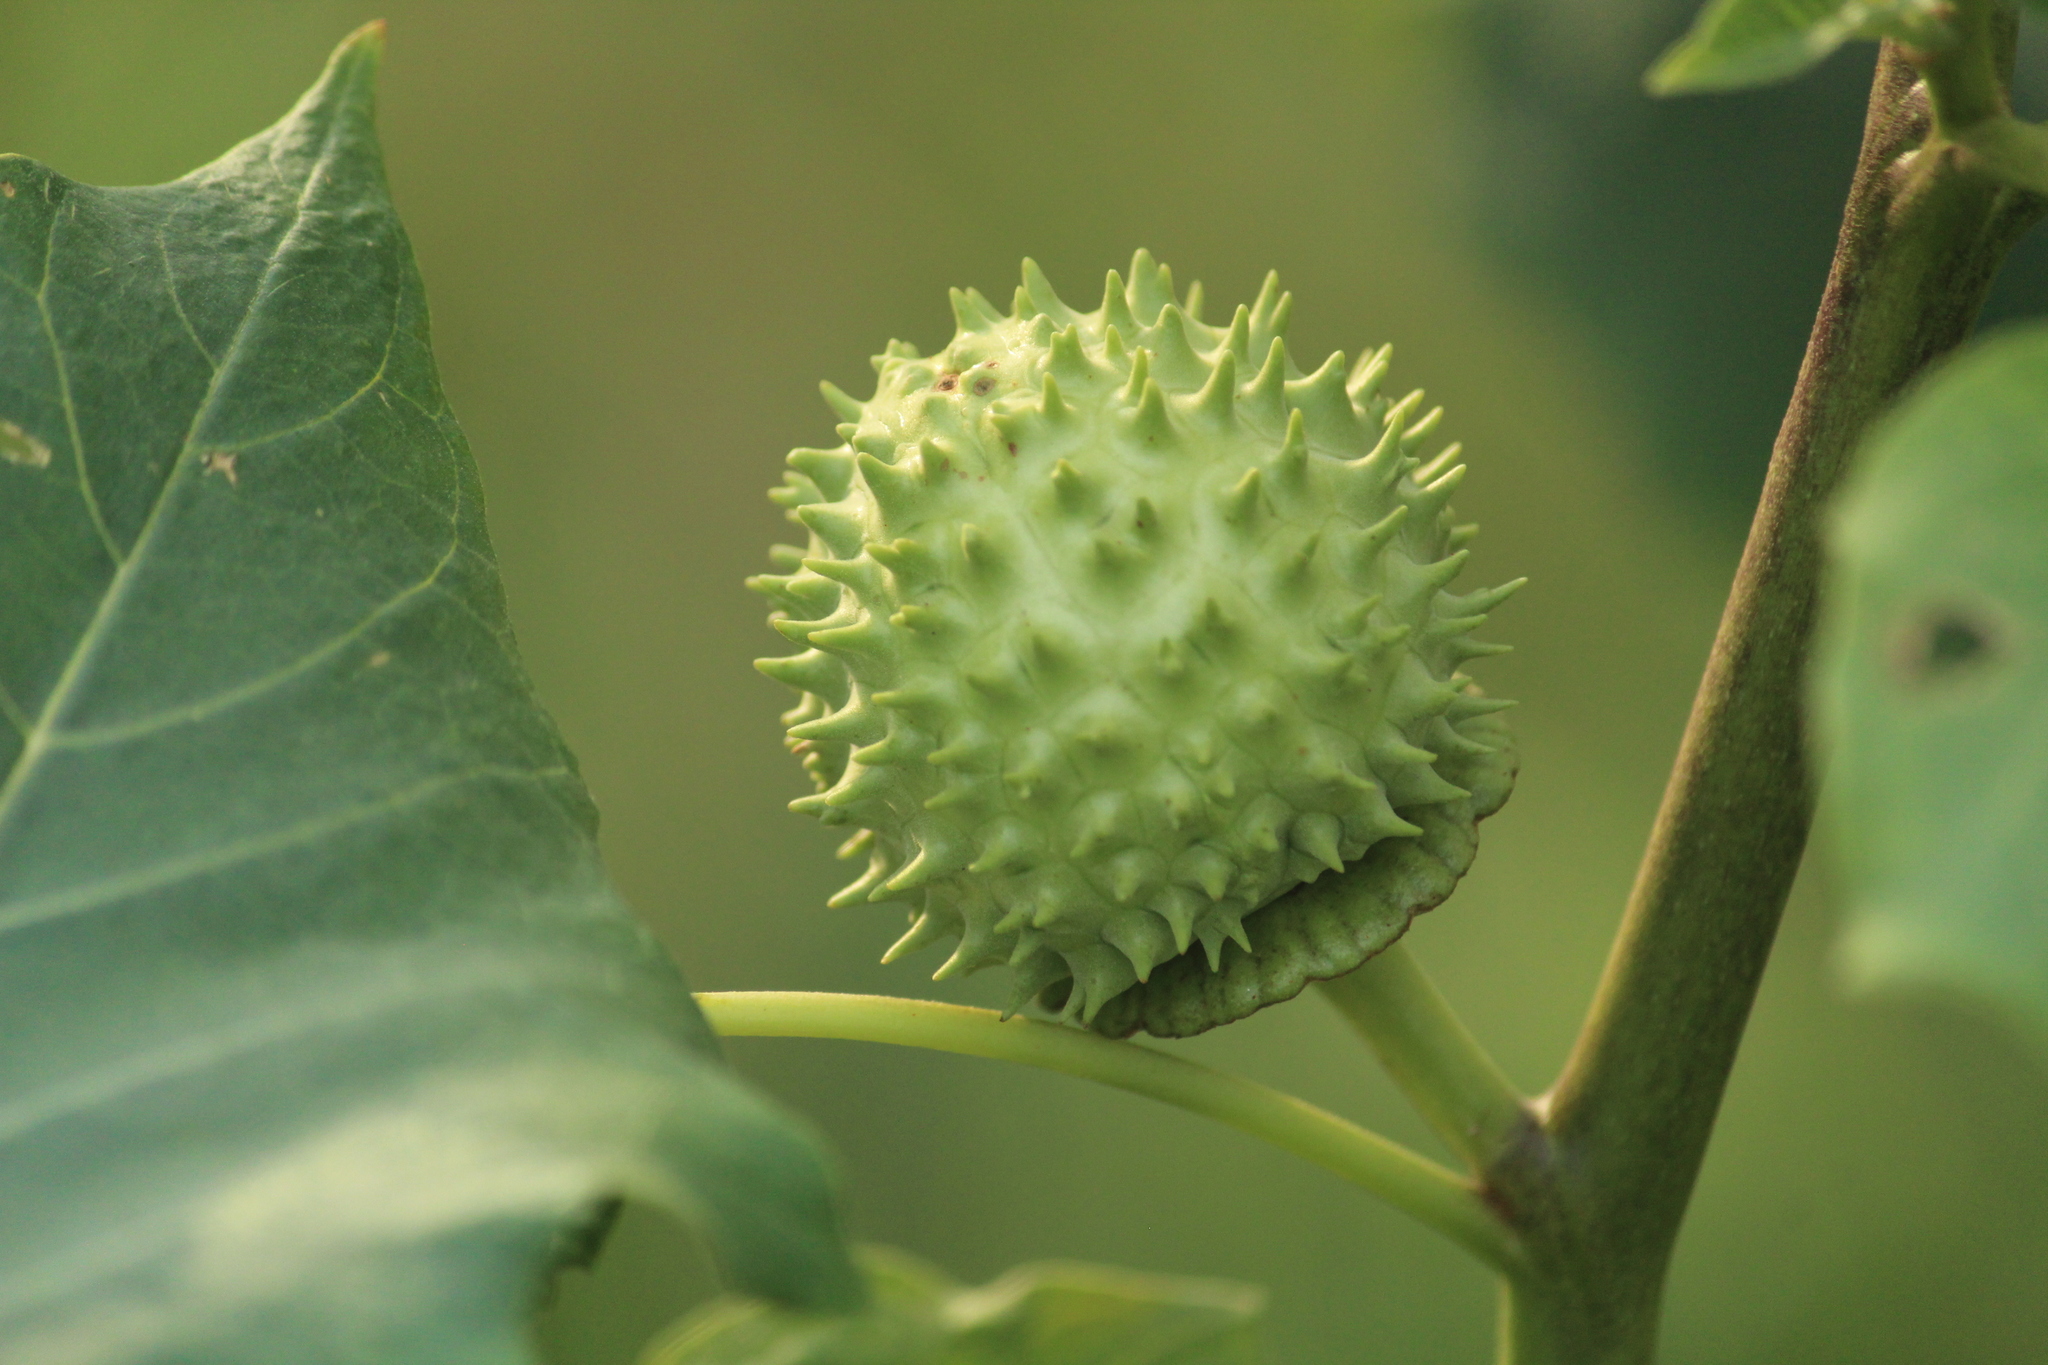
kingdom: Plantae
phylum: Tracheophyta
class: Magnoliopsida
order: Solanales
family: Solanaceae
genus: Datura
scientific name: Datura metel
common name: Jimsonweed
